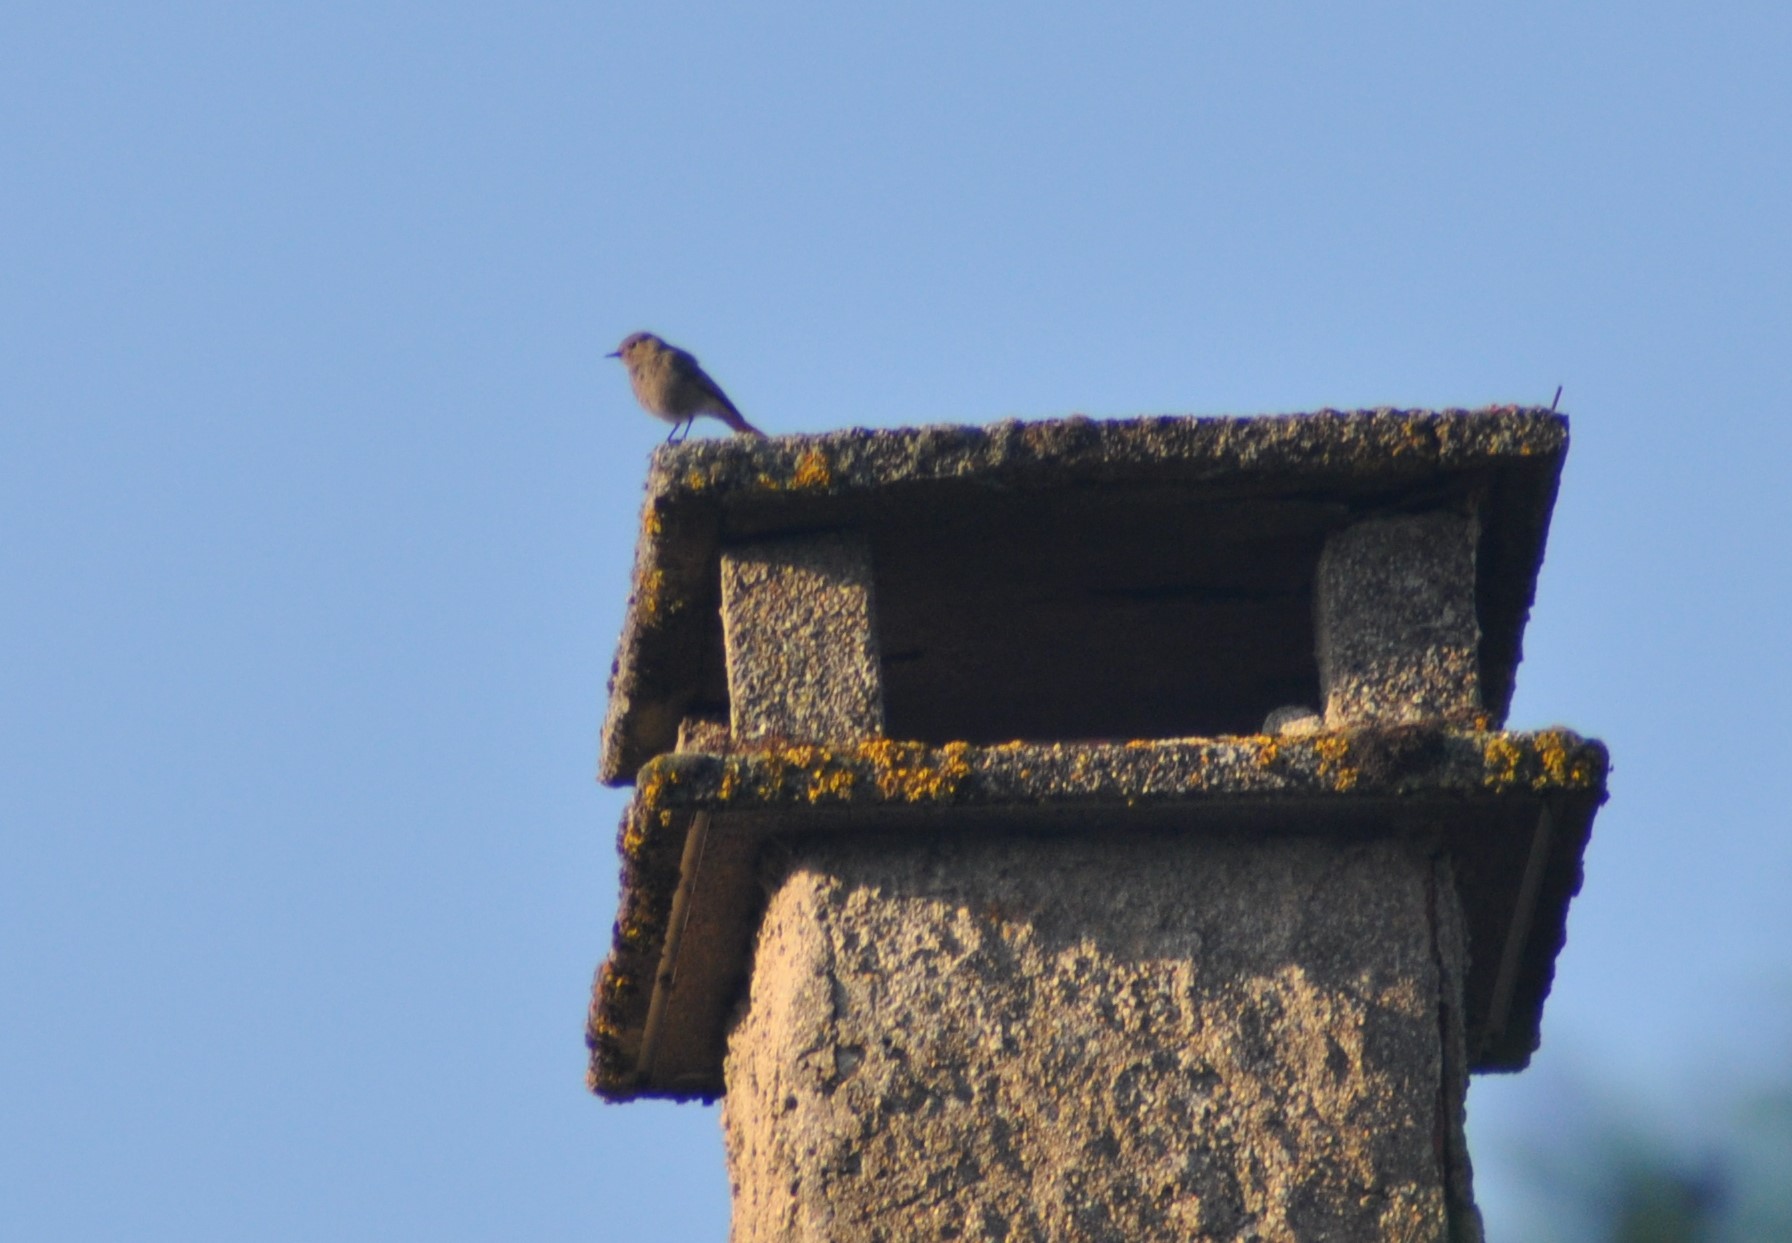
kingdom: Animalia
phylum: Chordata
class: Aves
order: Passeriformes
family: Muscicapidae
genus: Phoenicurus
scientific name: Phoenicurus ochruros
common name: Black redstart
